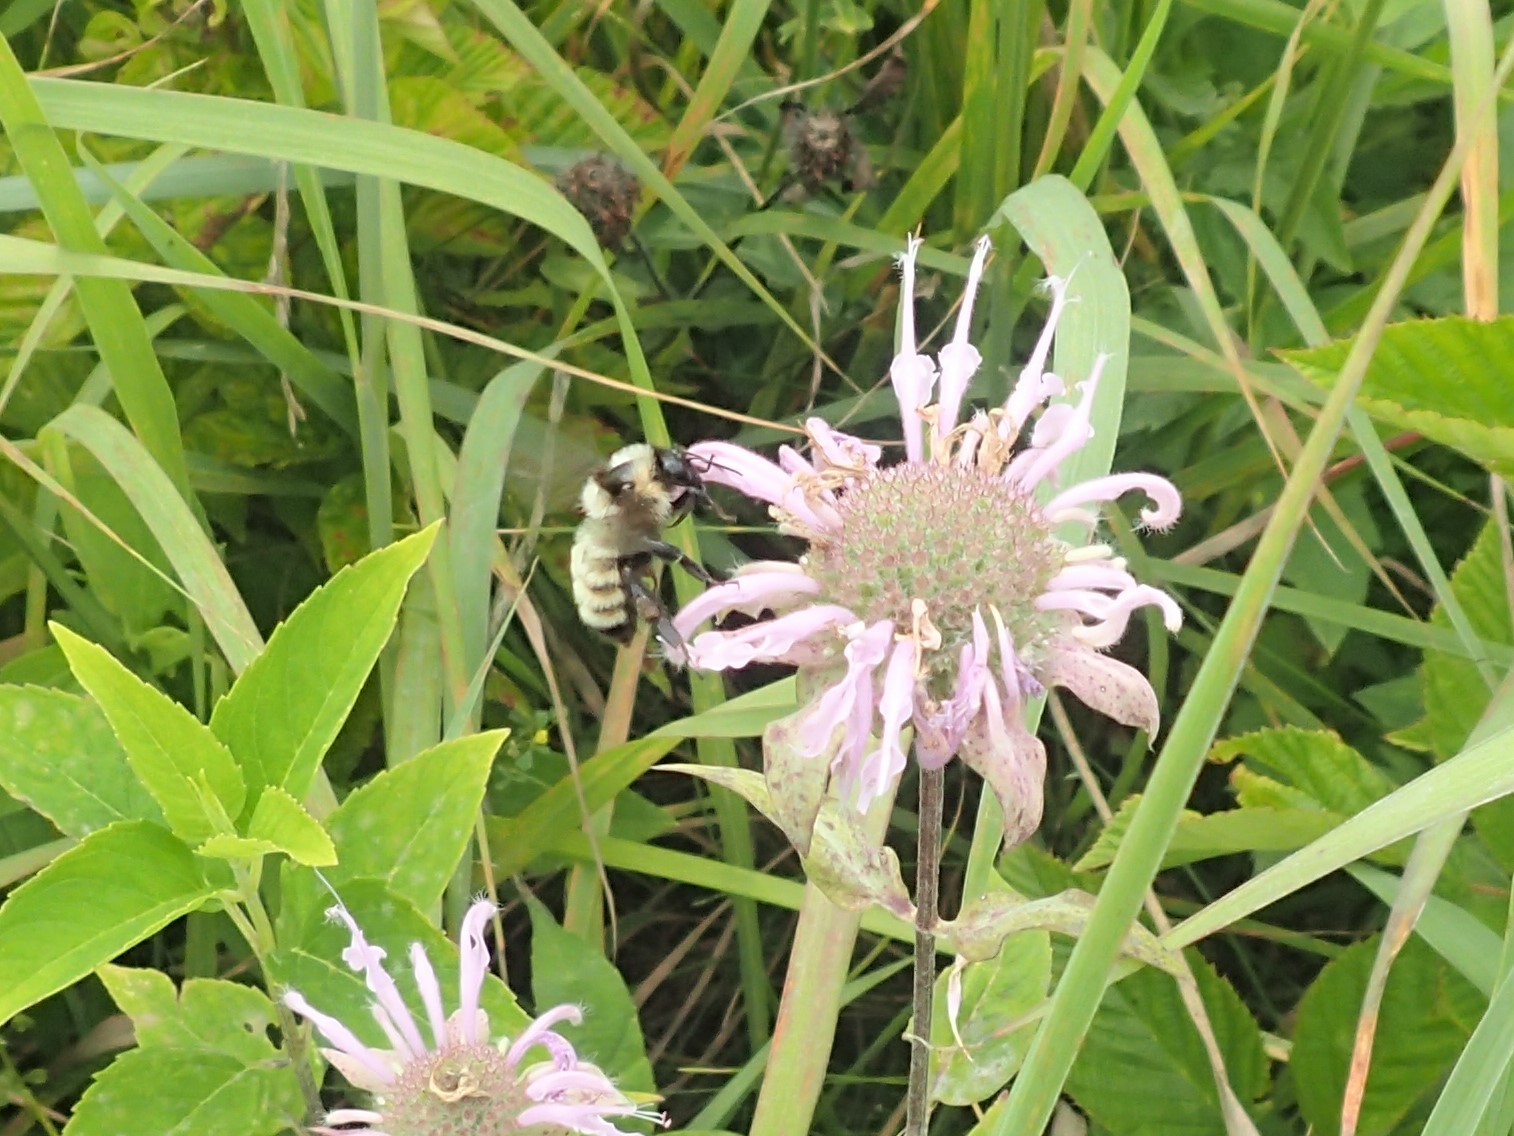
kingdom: Animalia
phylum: Arthropoda
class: Insecta
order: Hymenoptera
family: Apidae
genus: Bombus
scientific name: Bombus fervidus
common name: Yellow bumble bee
